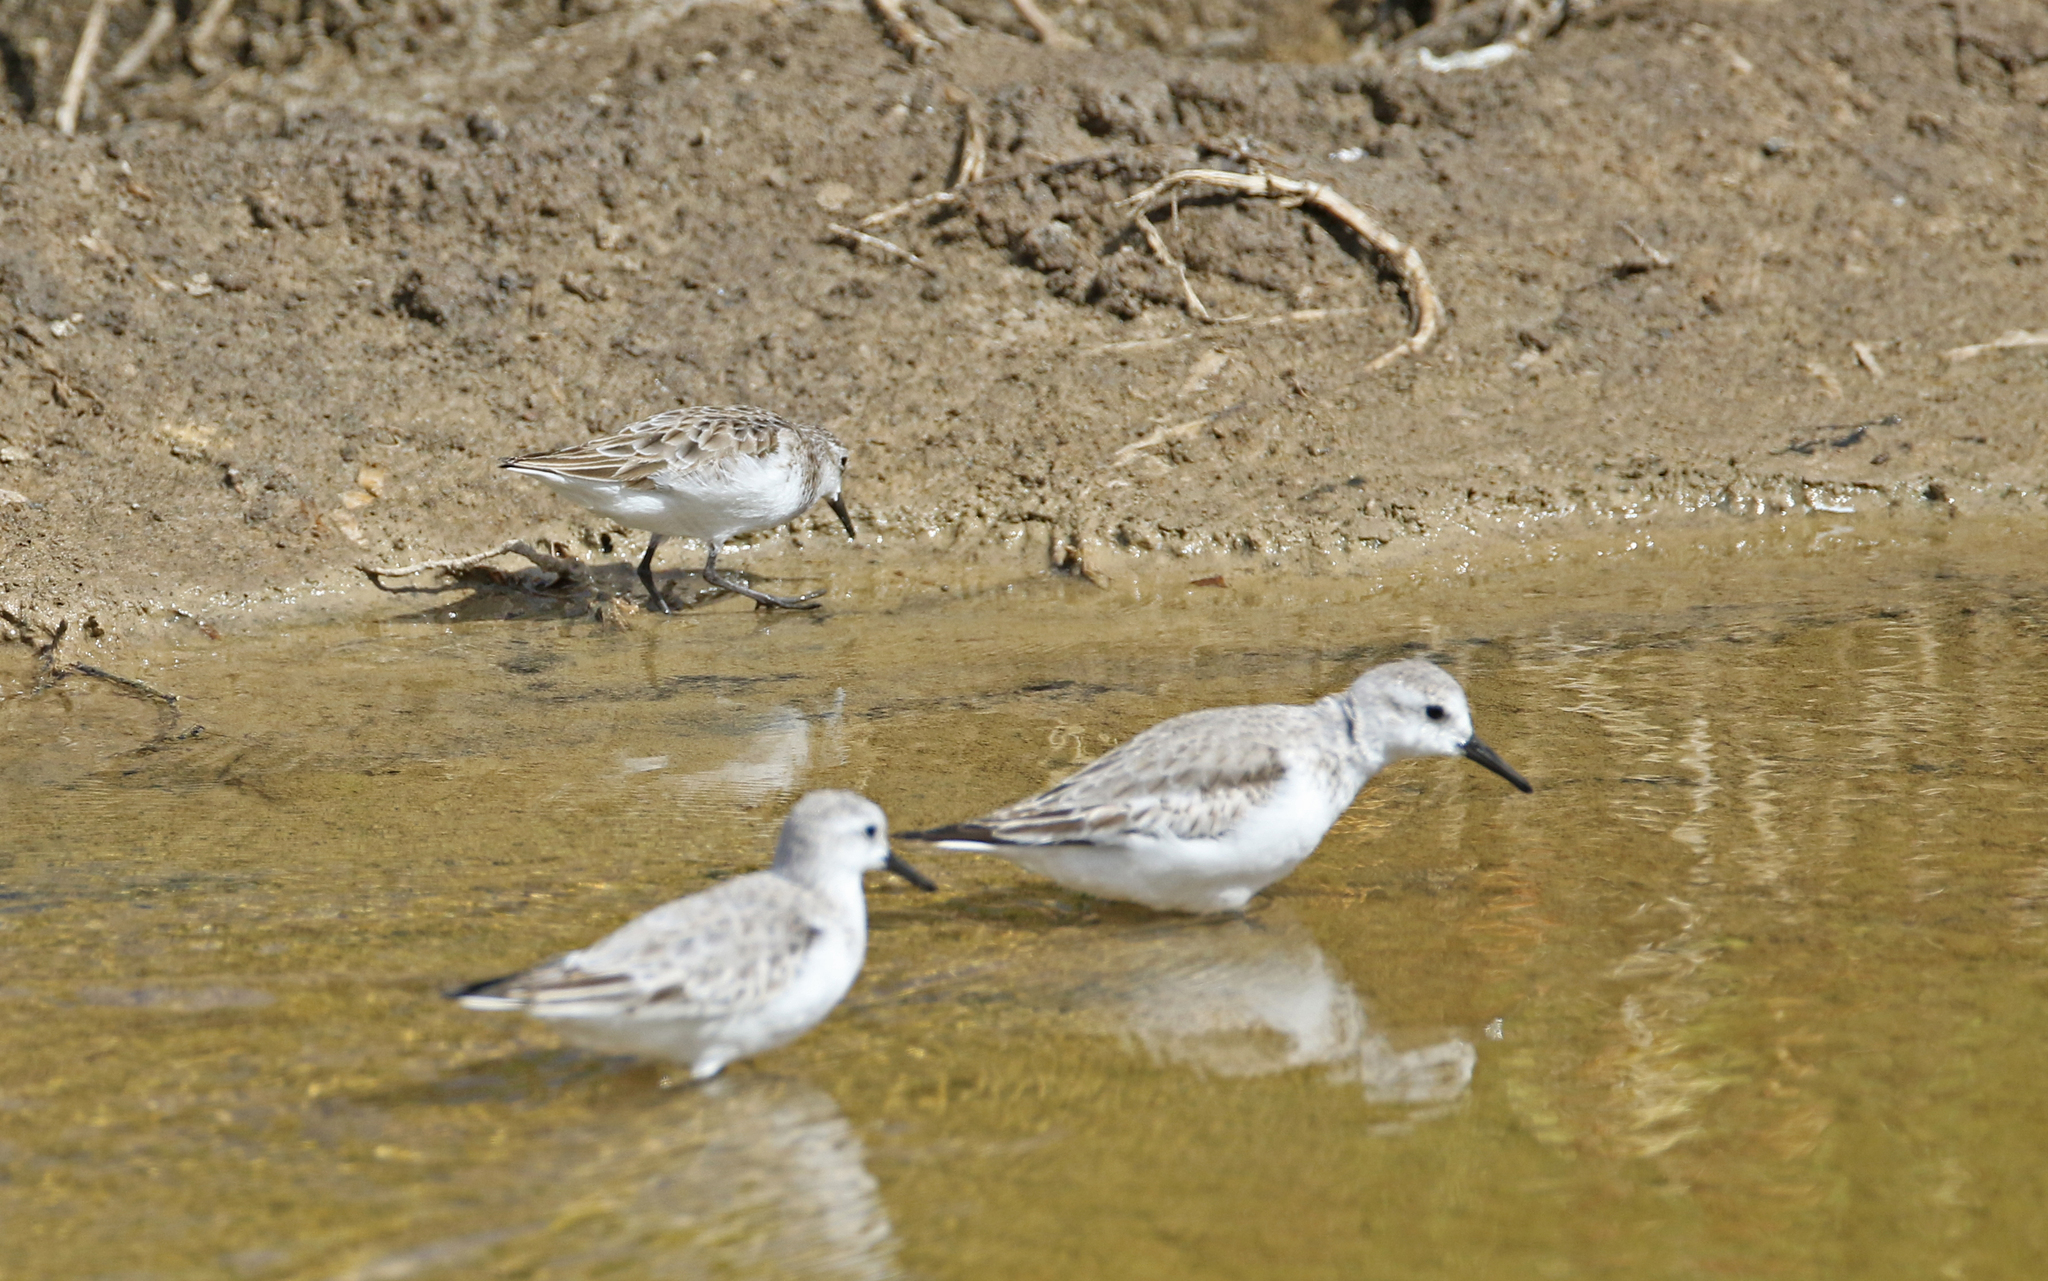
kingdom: Animalia
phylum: Chordata
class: Aves
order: Charadriiformes
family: Scolopacidae
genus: Calidris
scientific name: Calidris minuta
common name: Little stint
